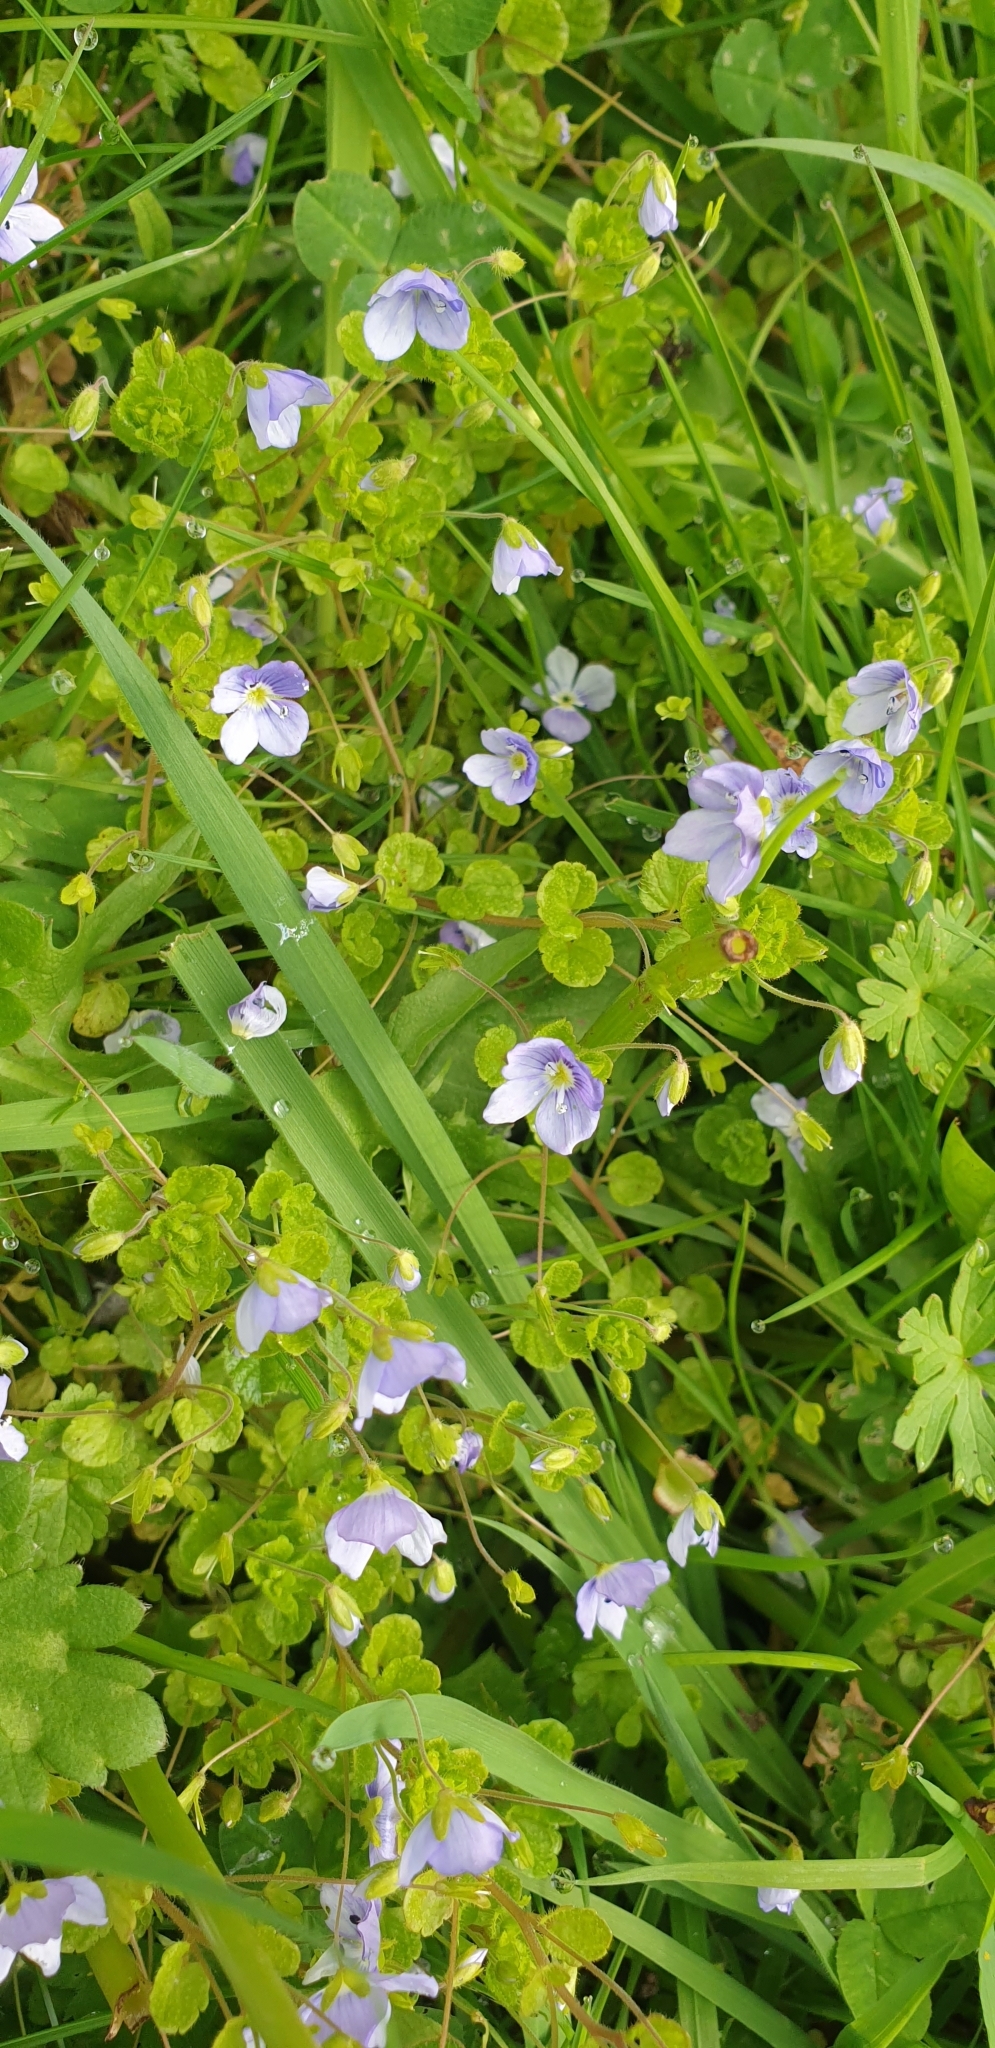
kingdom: Plantae
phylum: Tracheophyta
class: Magnoliopsida
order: Lamiales
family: Plantaginaceae
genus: Veronica
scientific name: Veronica filiformis
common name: Slender speedwell
